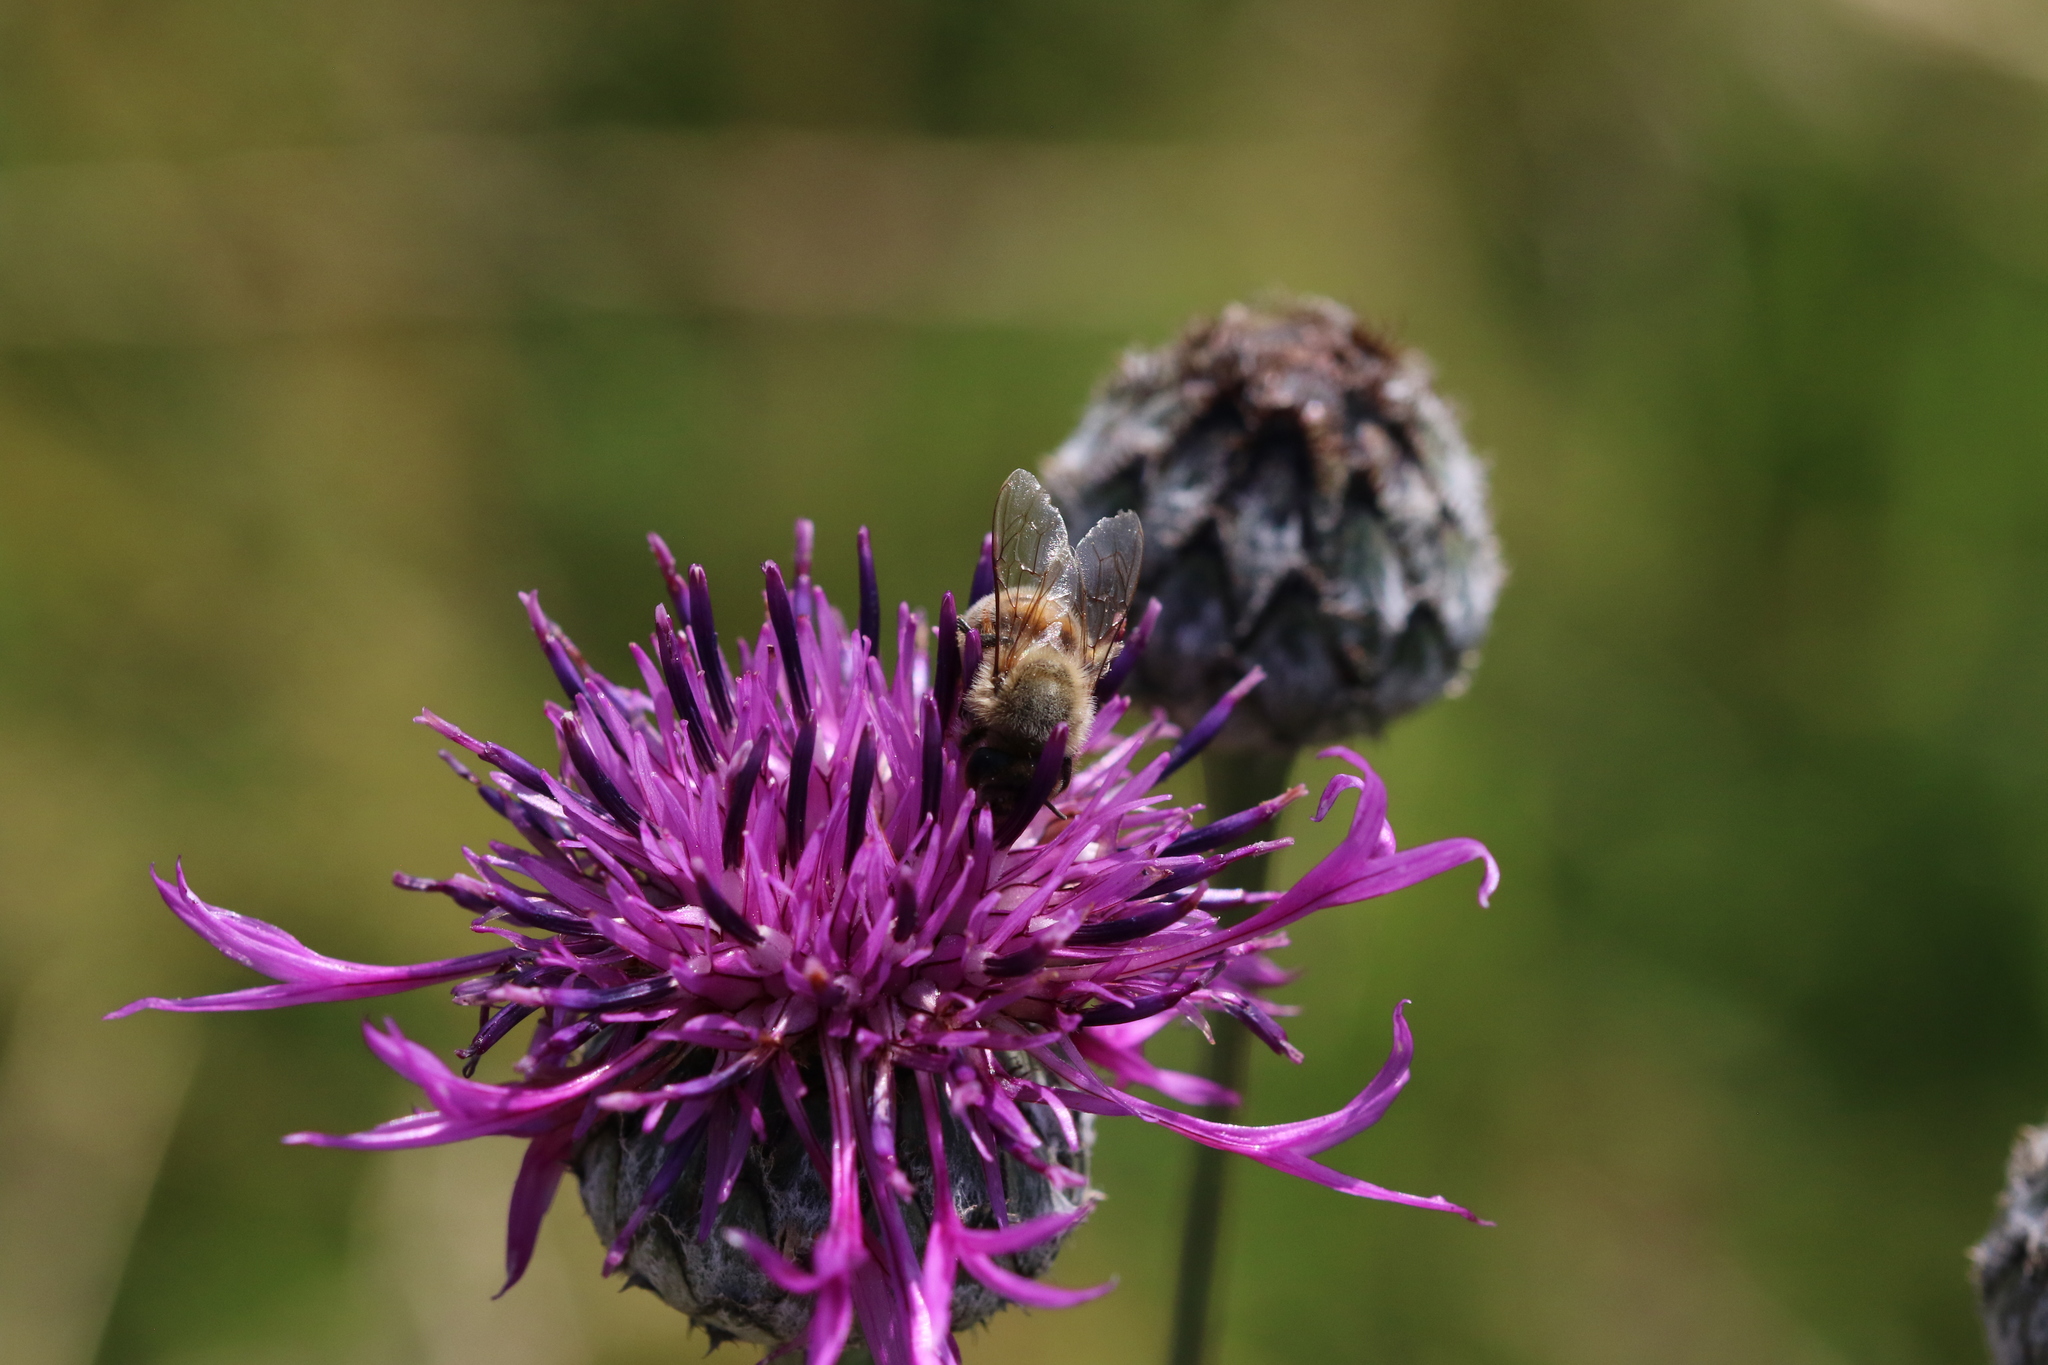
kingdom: Animalia
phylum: Arthropoda
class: Insecta
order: Hymenoptera
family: Apidae
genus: Apis
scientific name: Apis mellifera
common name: Honey bee
